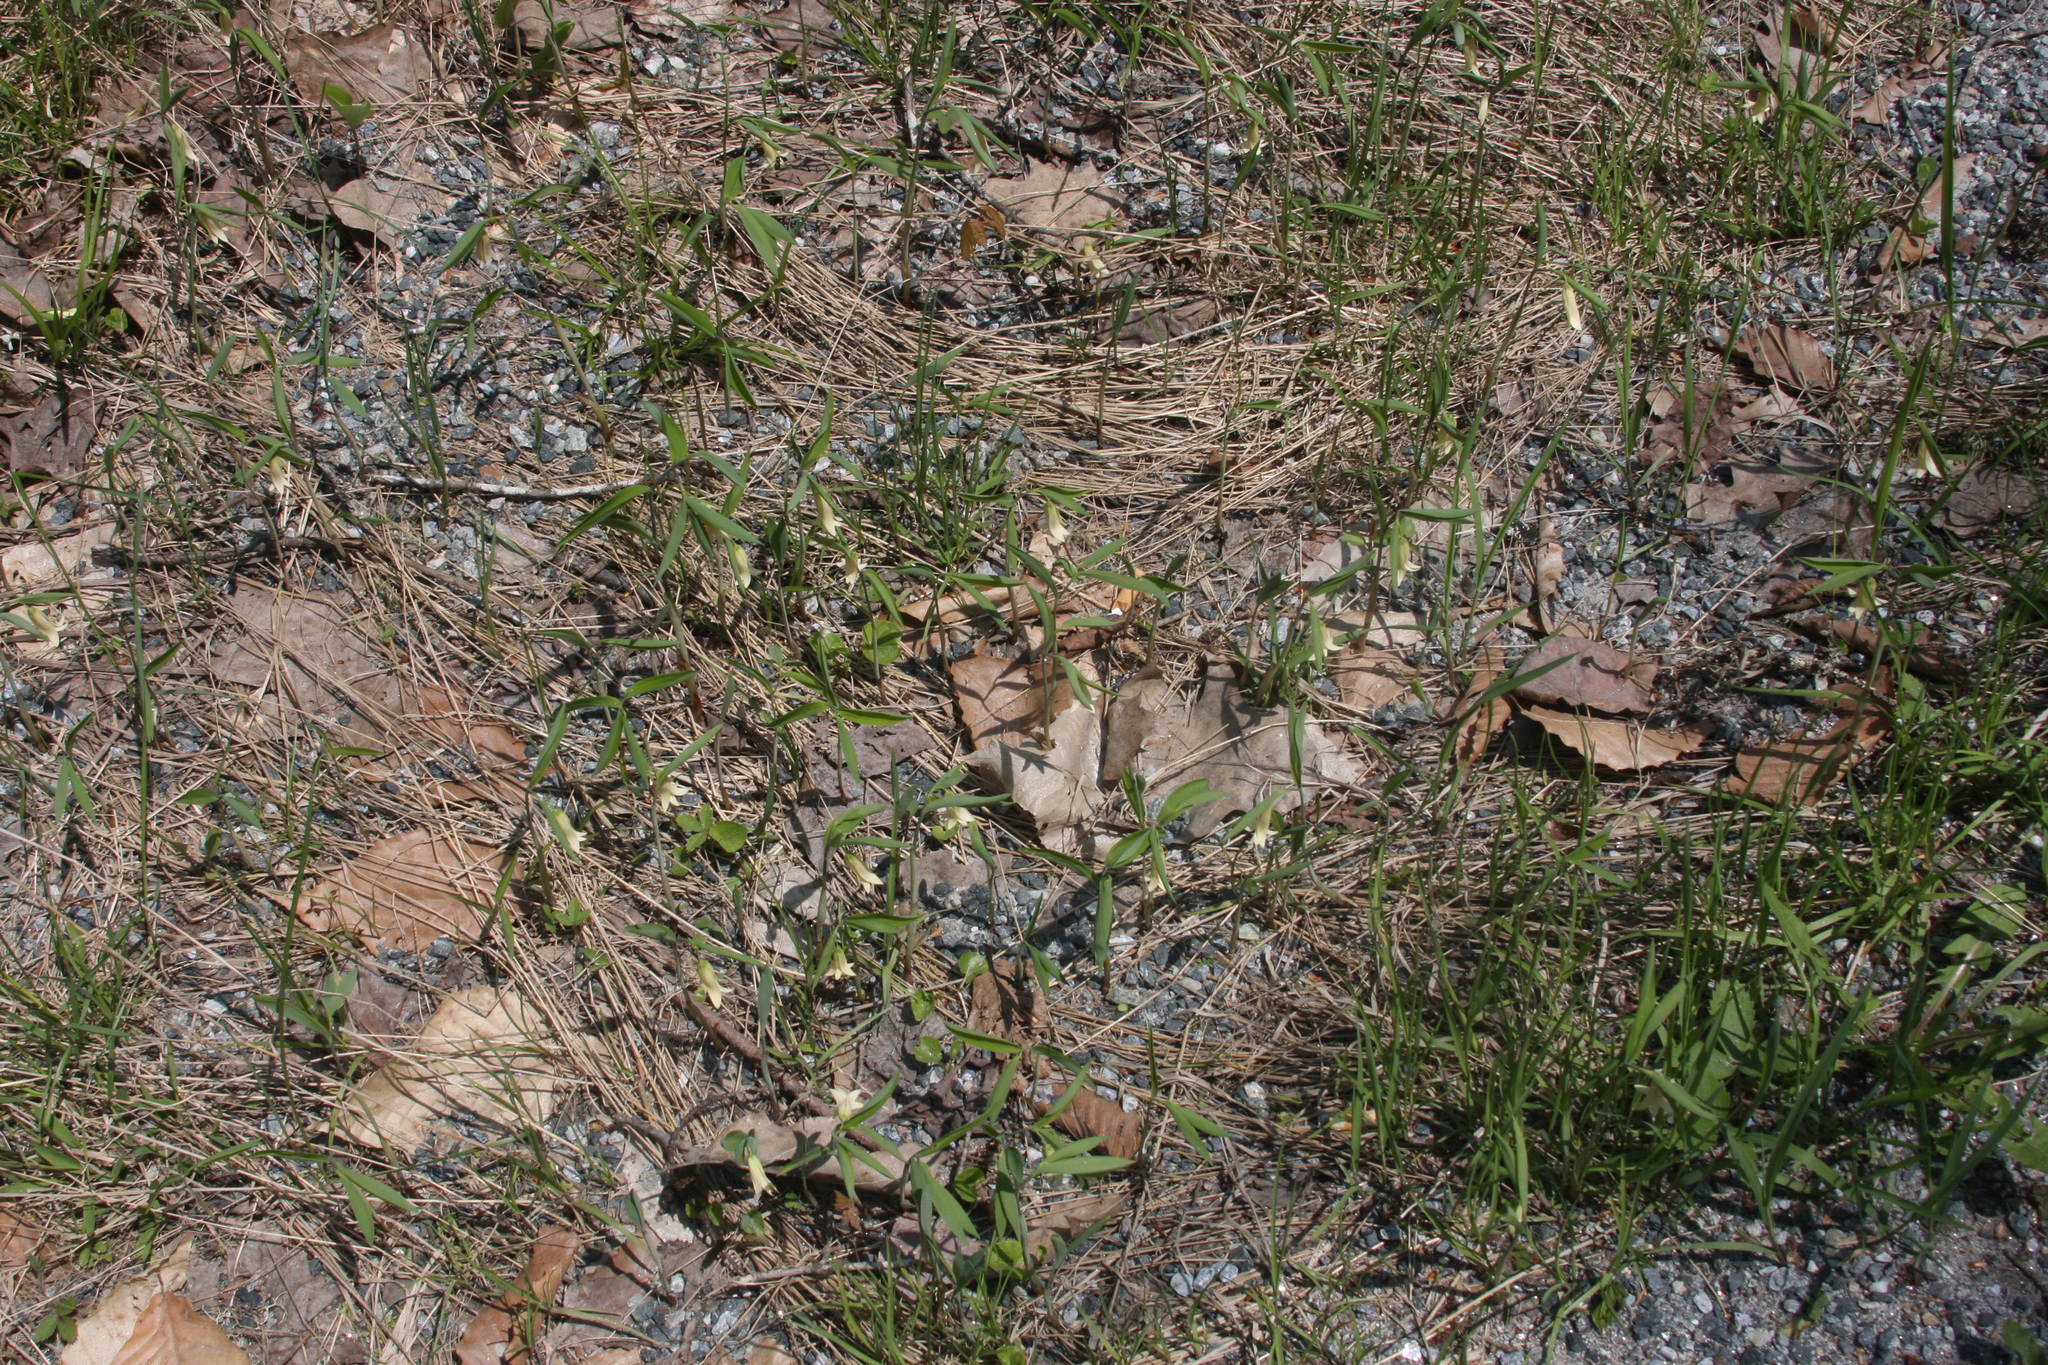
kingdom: Plantae
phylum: Tracheophyta
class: Liliopsida
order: Liliales
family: Colchicaceae
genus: Uvularia
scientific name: Uvularia sessilifolia
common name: Straw-lily
